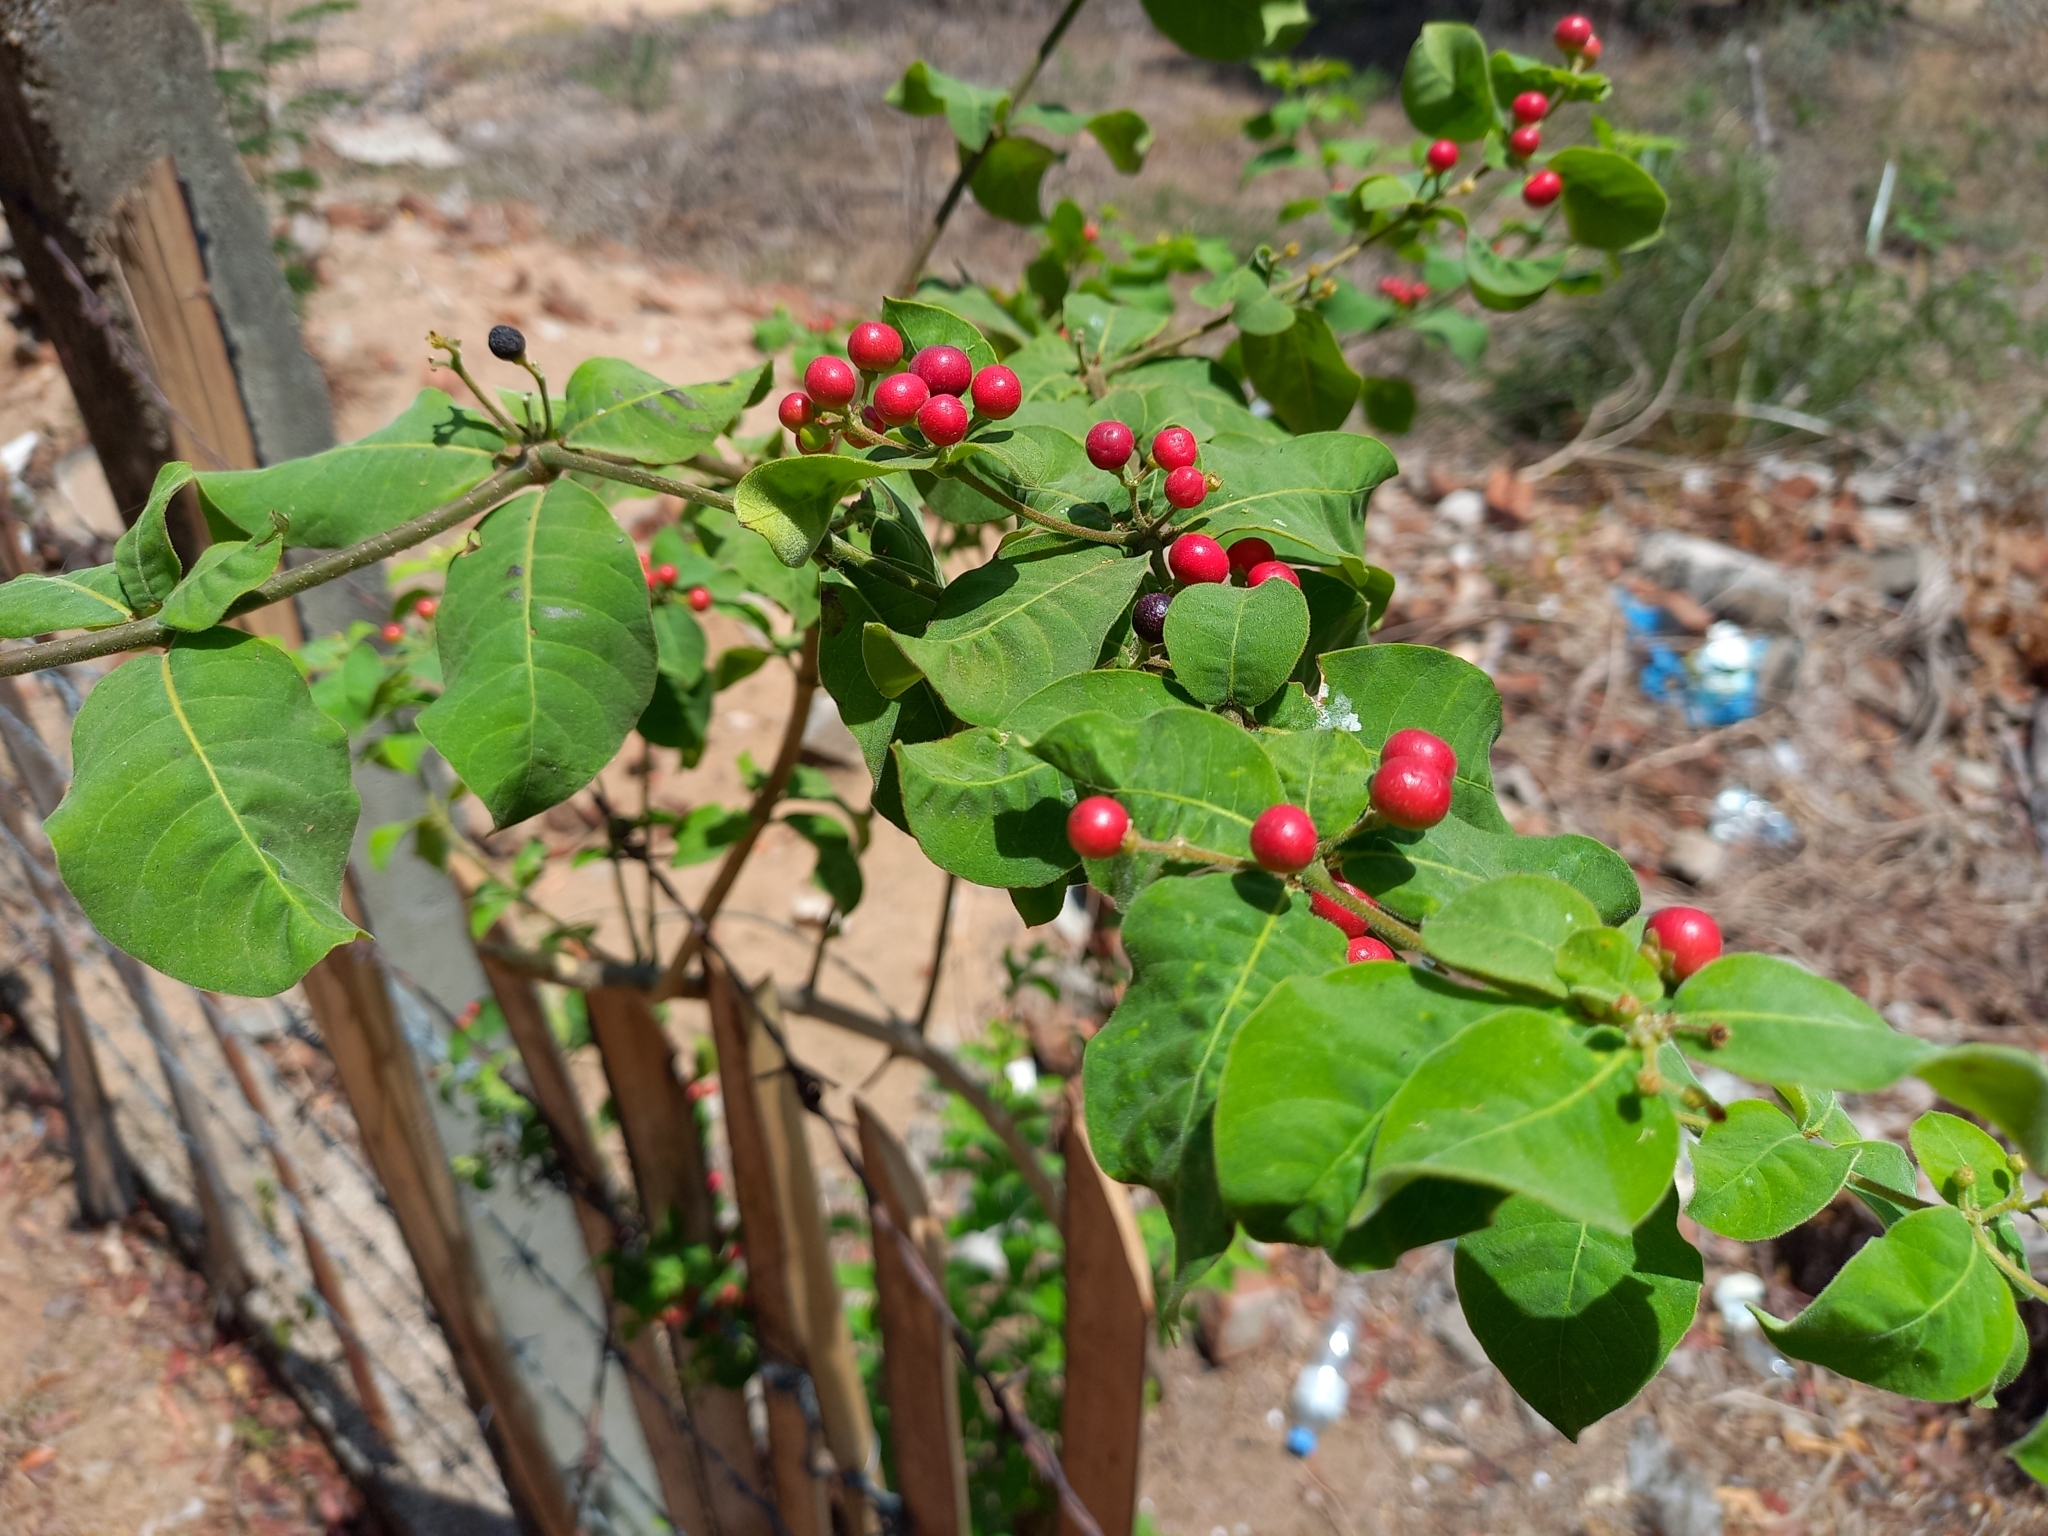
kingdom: Plantae
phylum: Tracheophyta
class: Magnoliopsida
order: Gentianales
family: Apocynaceae
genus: Rauvolfia
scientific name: Rauvolfia tetraphylla
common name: Four-leaf devil-pepper
